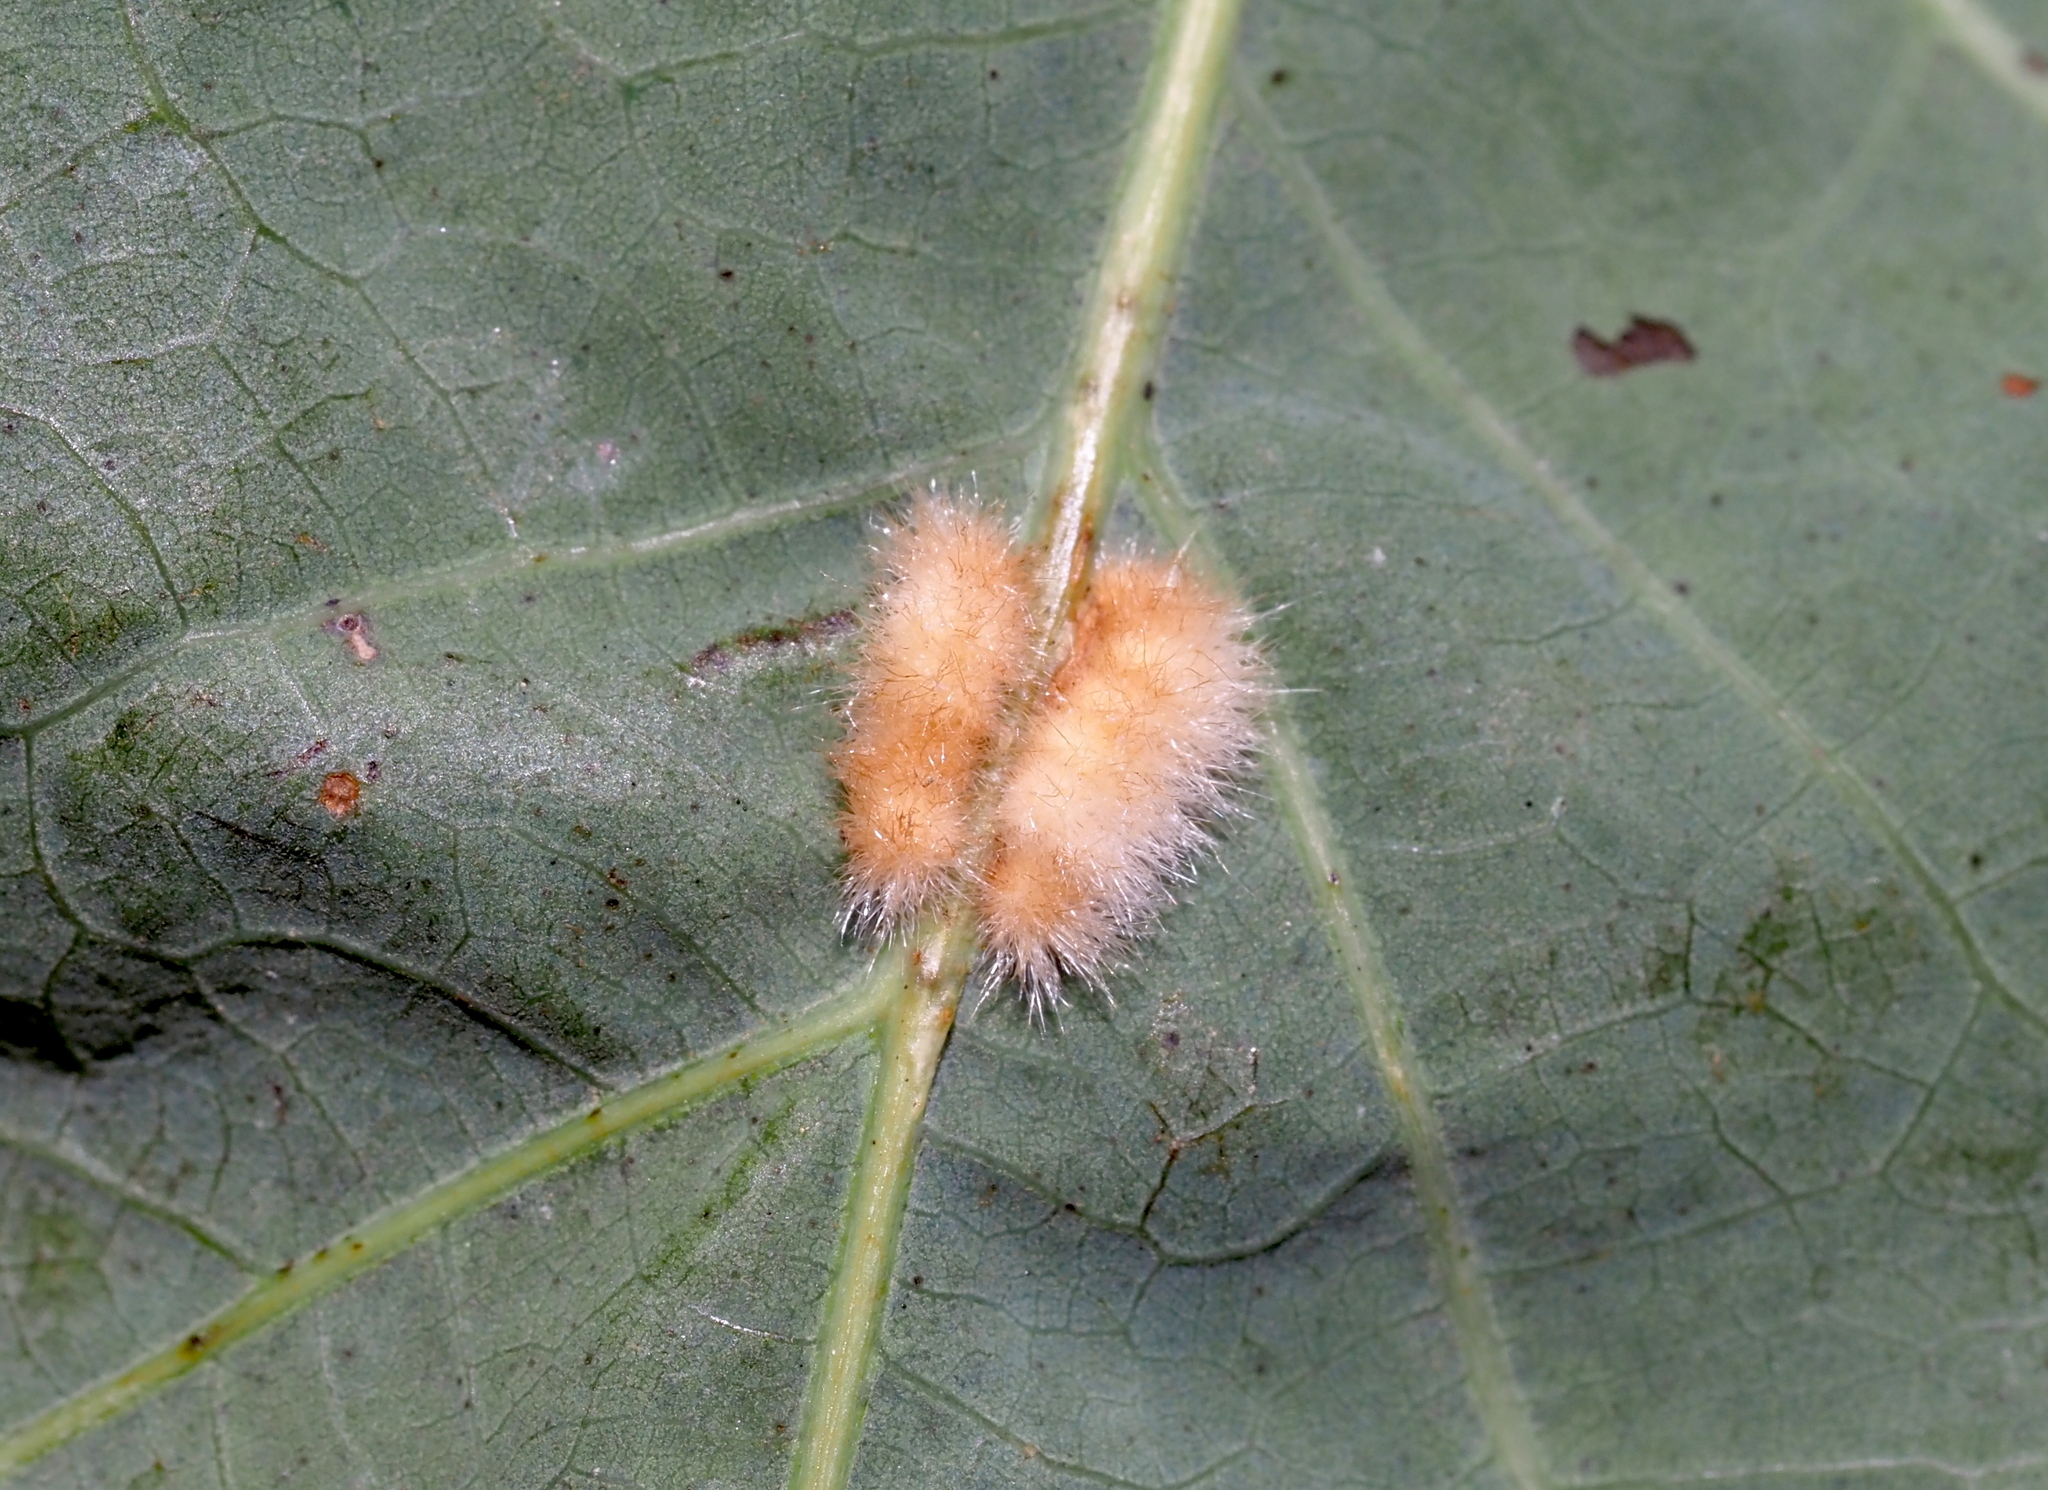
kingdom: Animalia
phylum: Arthropoda
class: Insecta
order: Hymenoptera
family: Cynipidae
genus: Andricus
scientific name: Andricus
